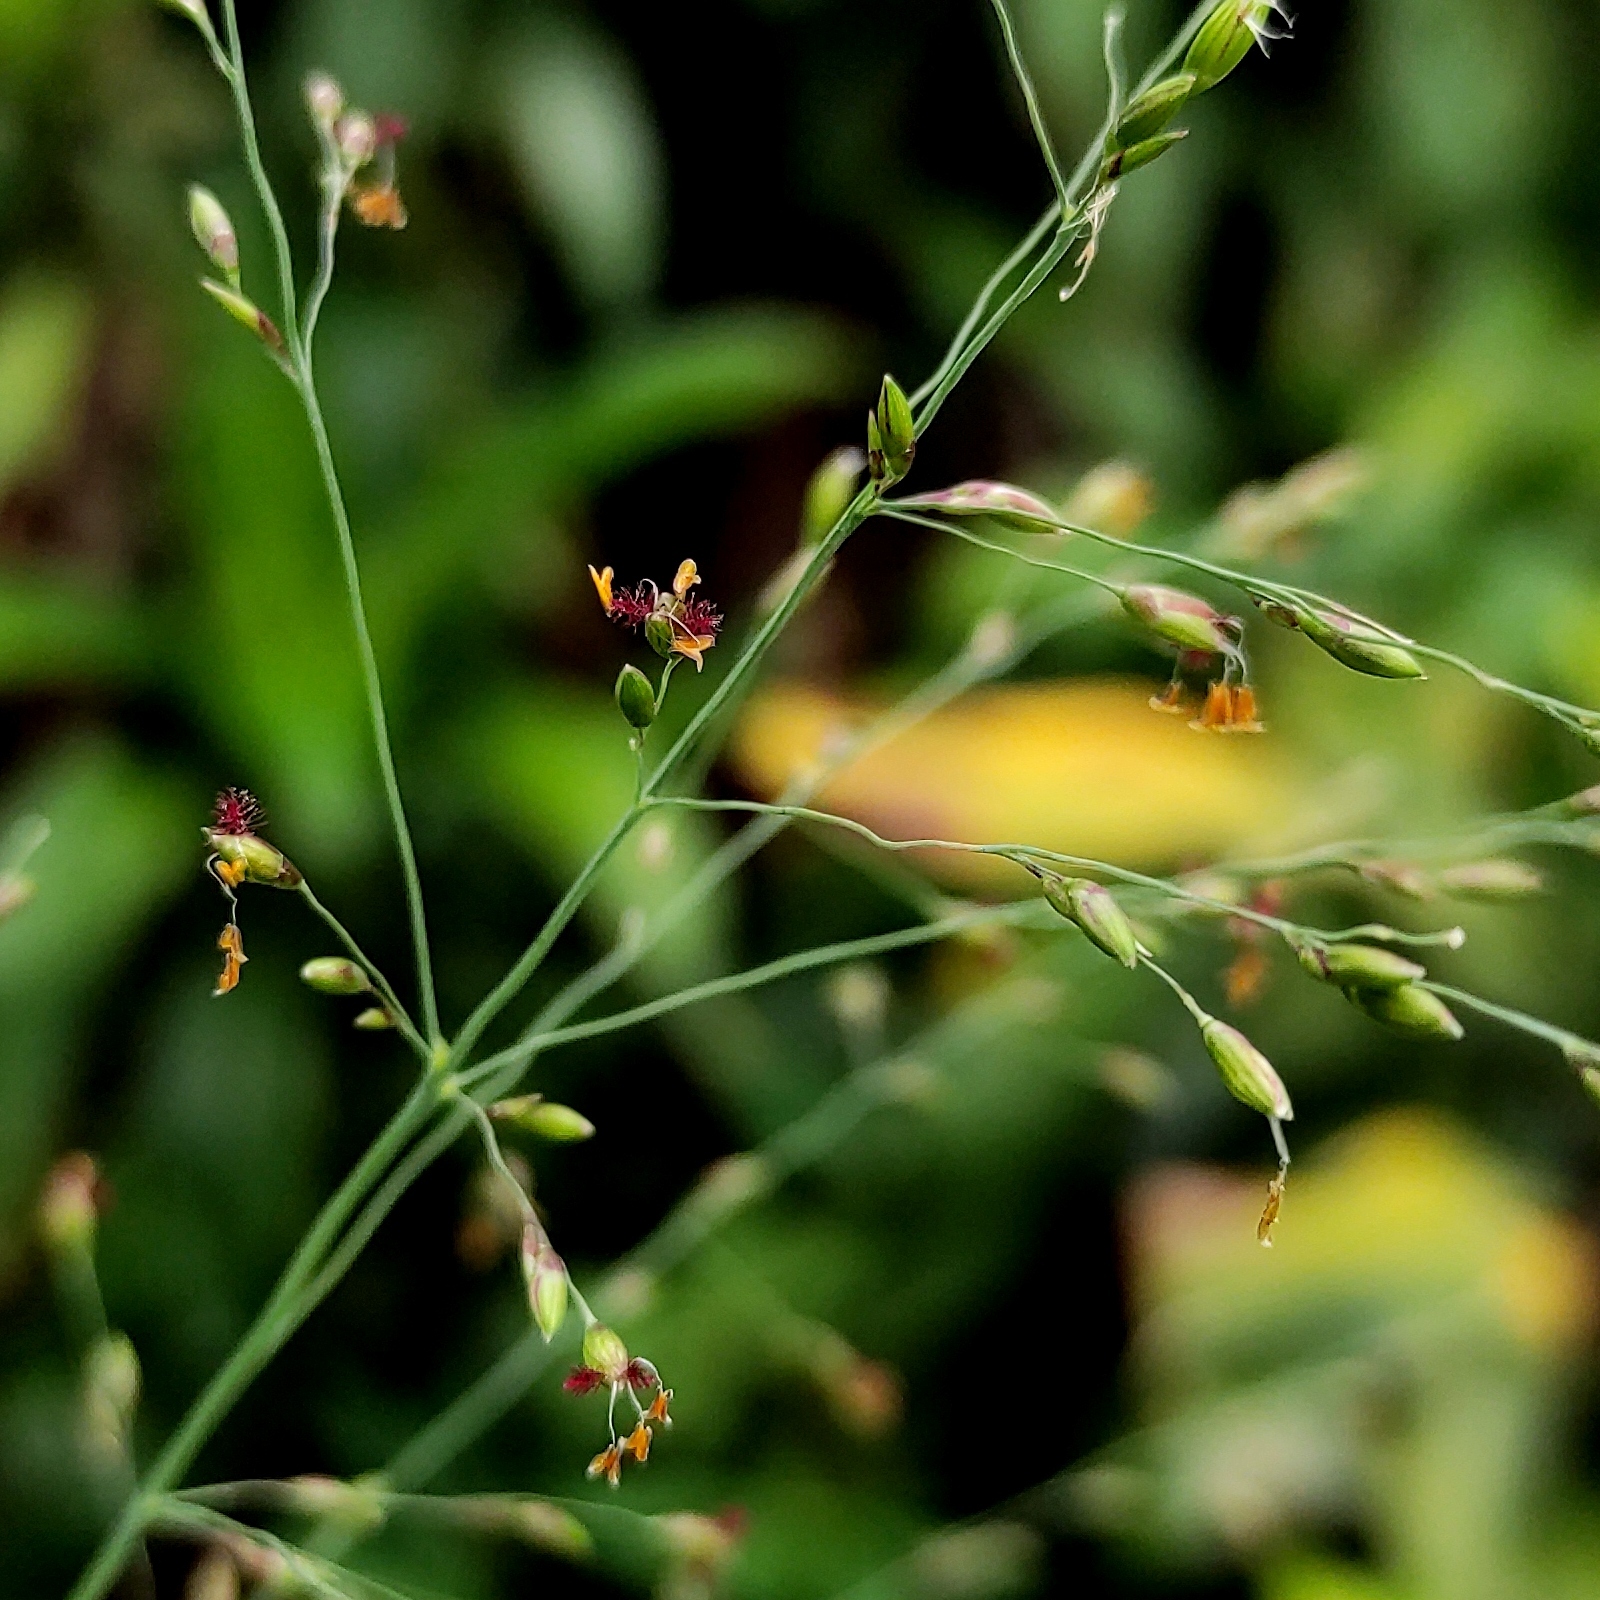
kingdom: Plantae
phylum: Tracheophyta
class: Liliopsida
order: Poales
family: Poaceae
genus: Megathyrsus
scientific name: Megathyrsus maximus
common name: Guineagrass
